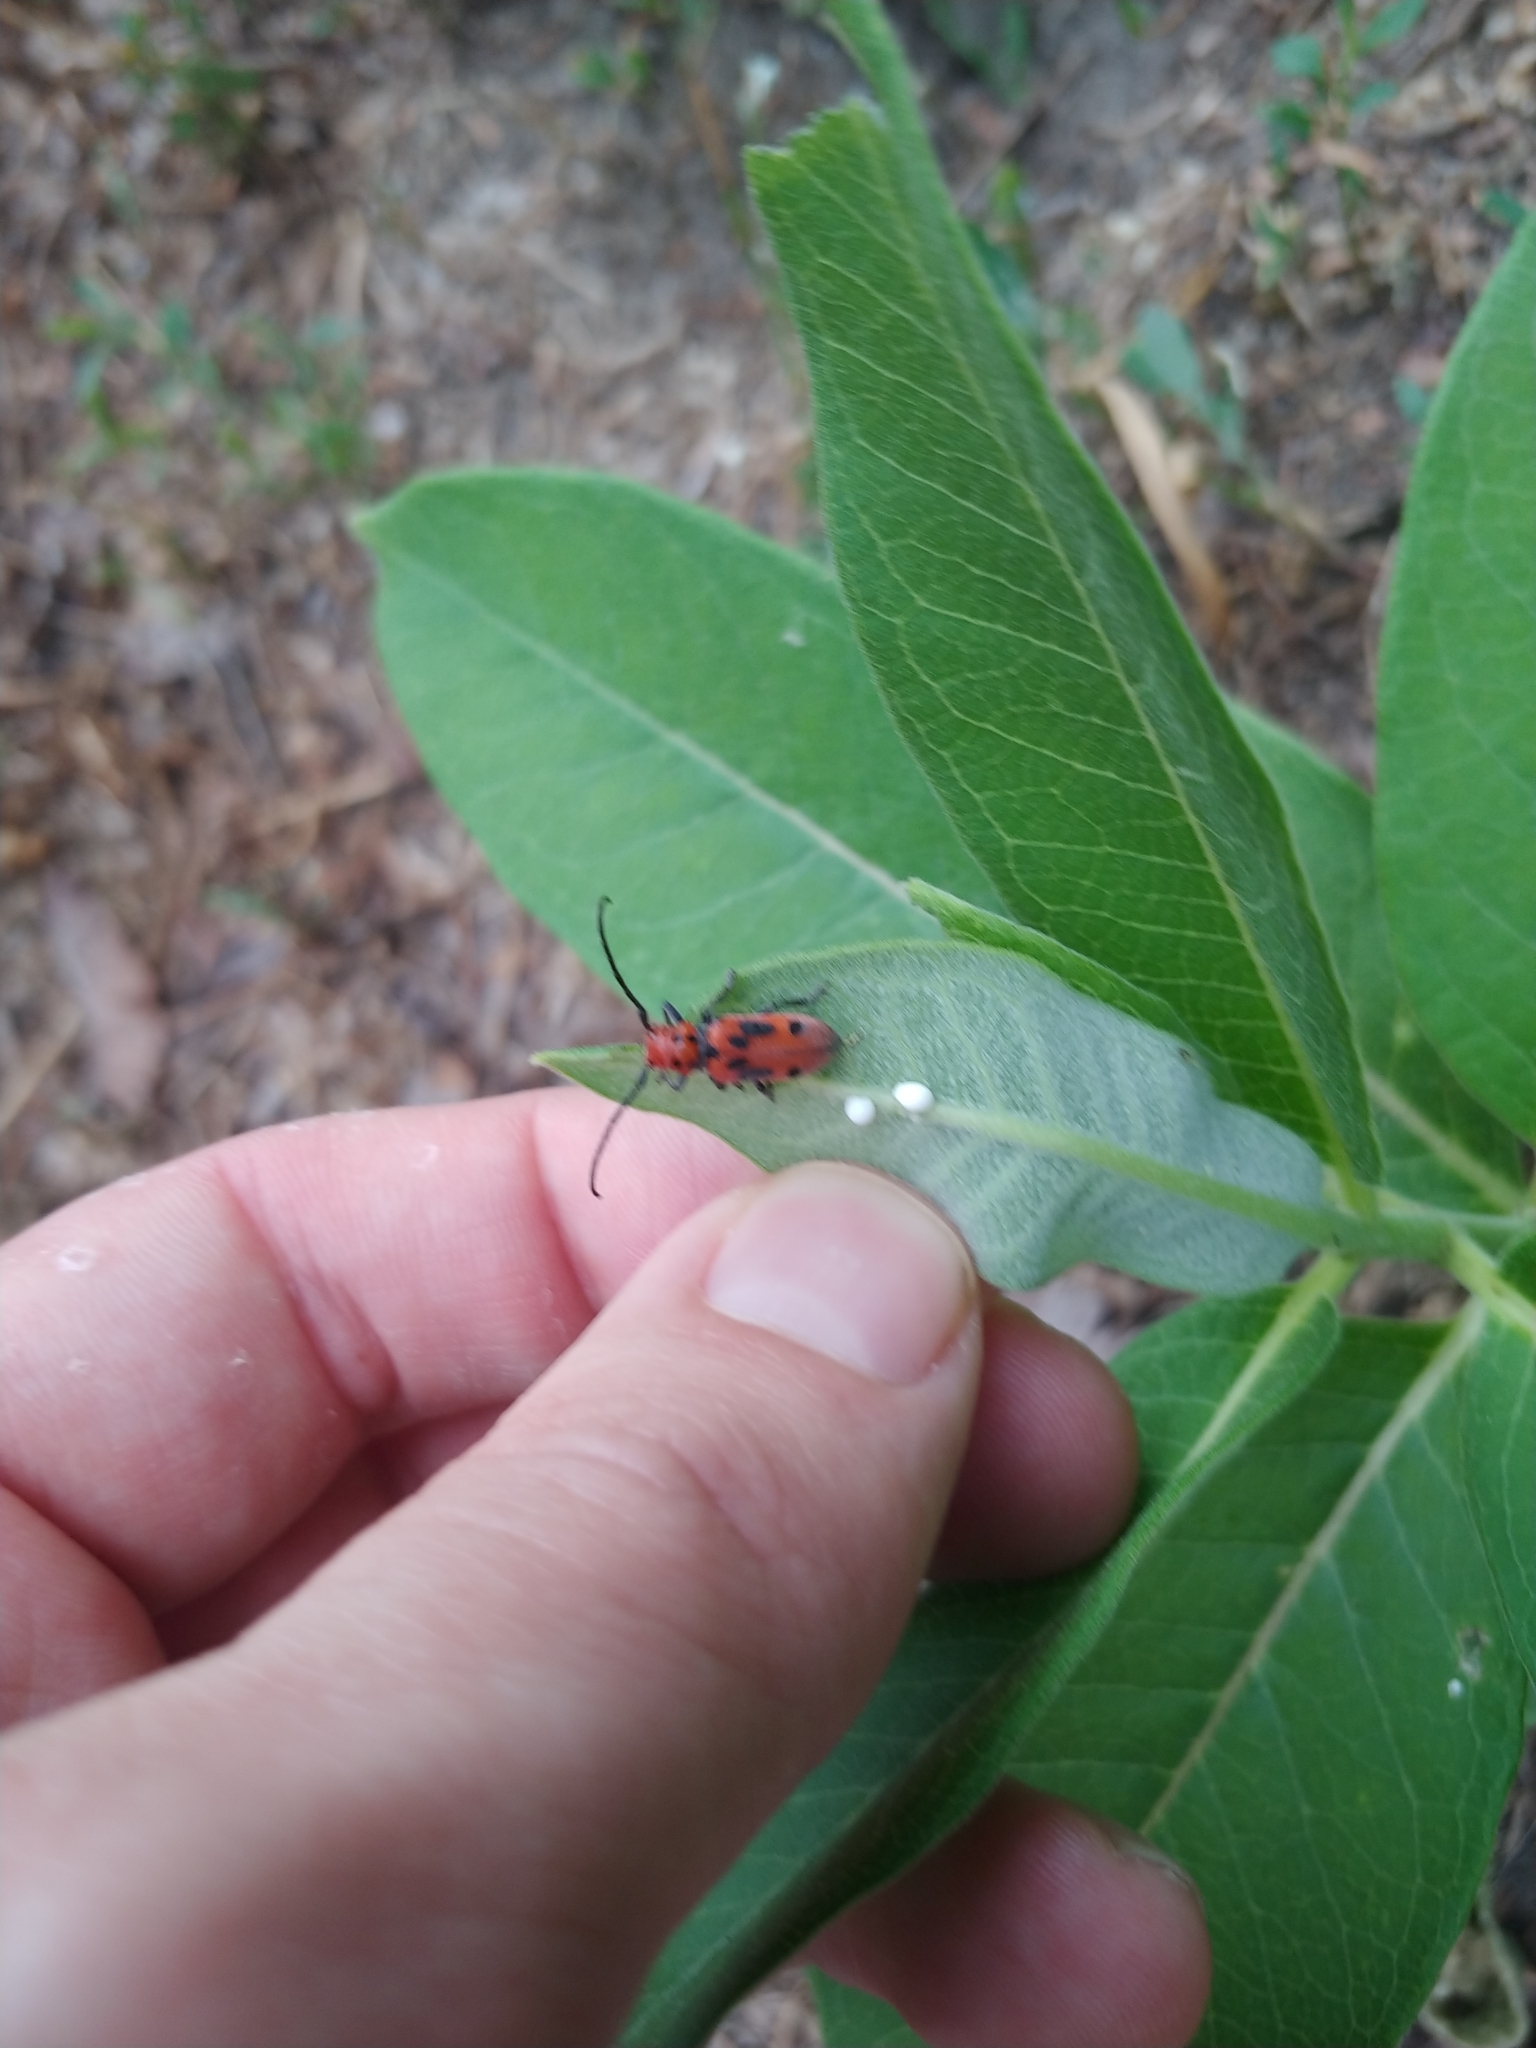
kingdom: Animalia
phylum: Arthropoda
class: Insecta
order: Coleoptera
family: Cerambycidae
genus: Tetraopes
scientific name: Tetraopes tetrophthalmus
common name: Red milkweed beetle
